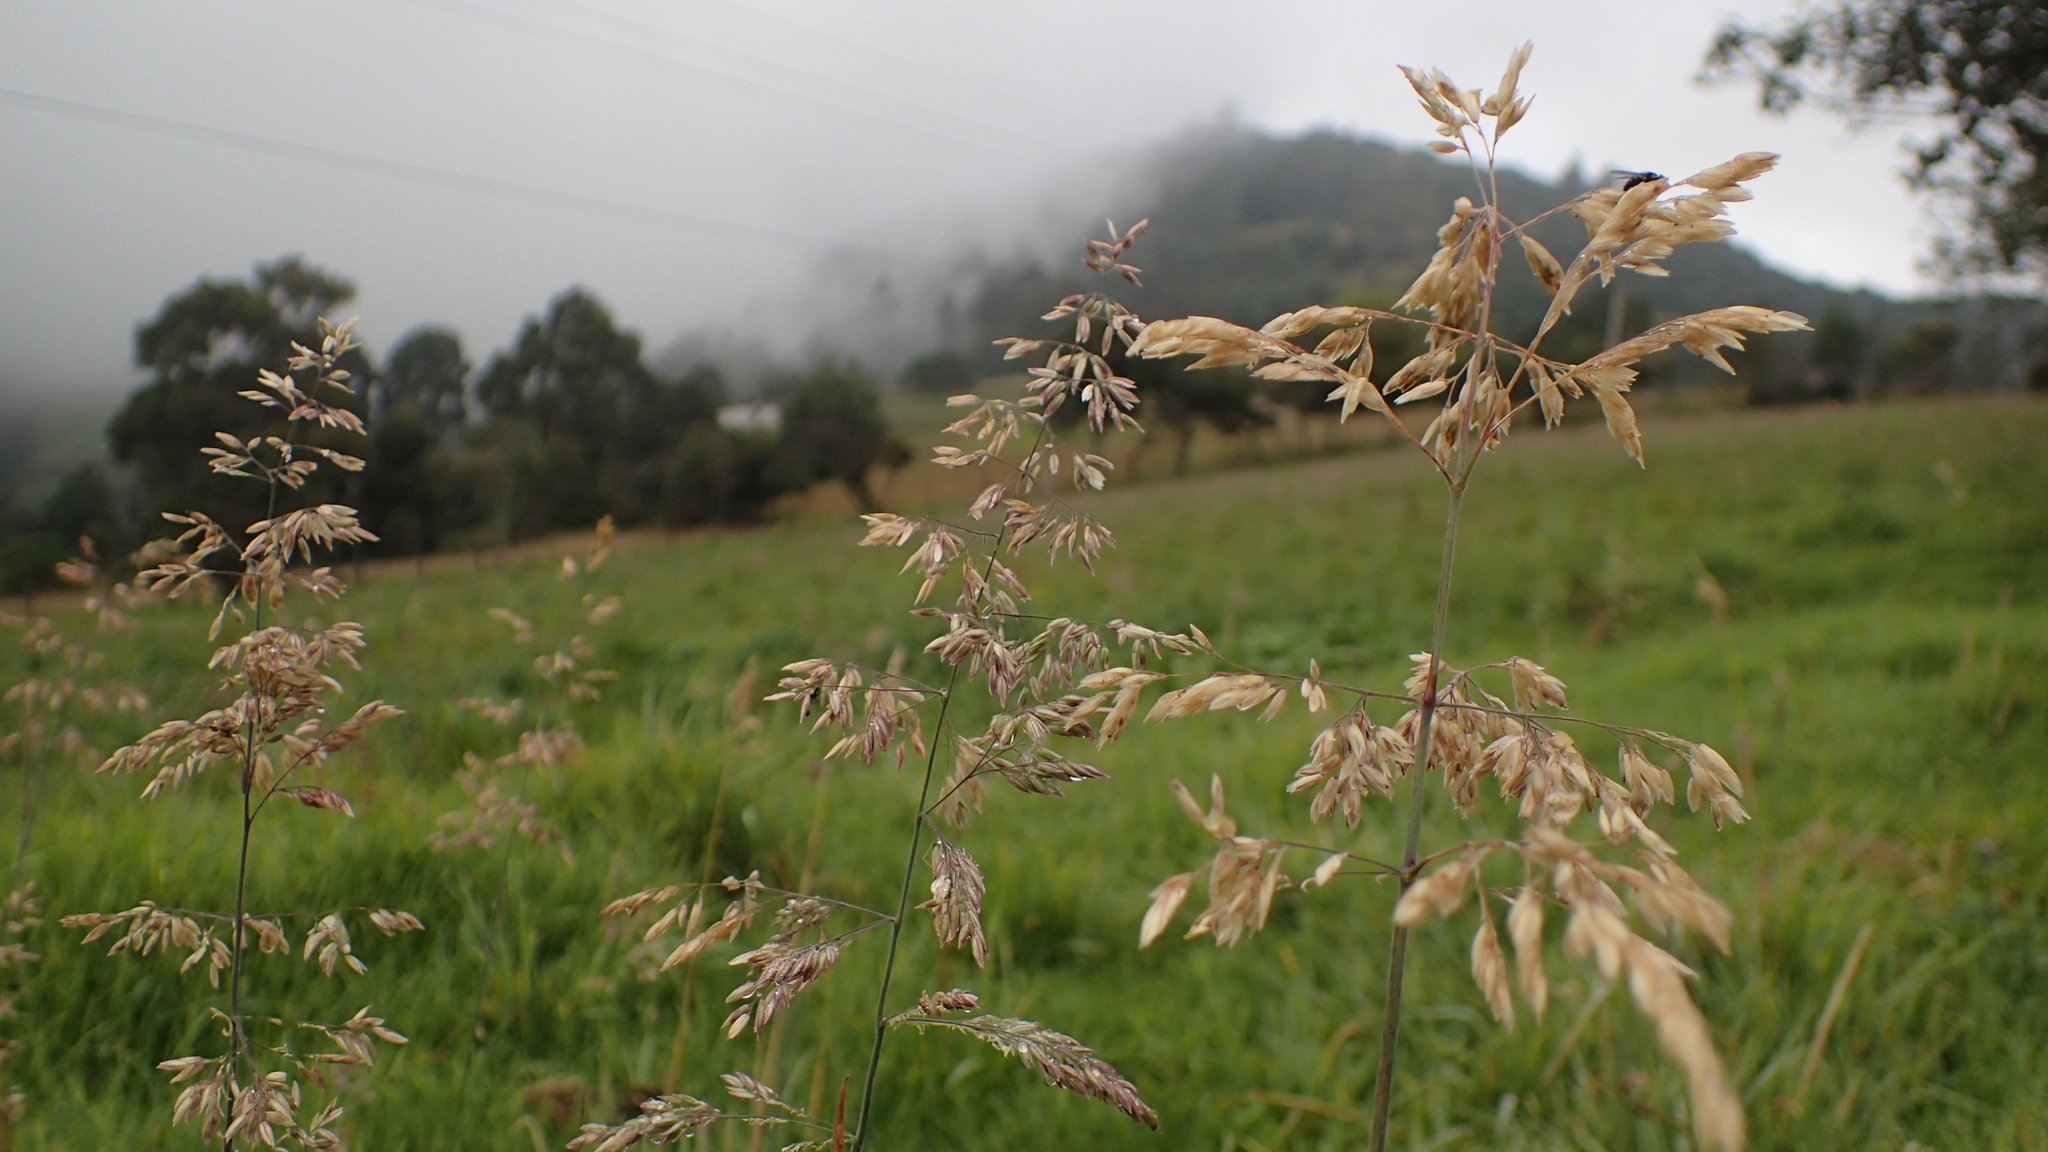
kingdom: Plantae
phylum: Tracheophyta
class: Liliopsida
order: Poales
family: Poaceae
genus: Holcus
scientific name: Holcus lanatus
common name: Yorkshire-fog
